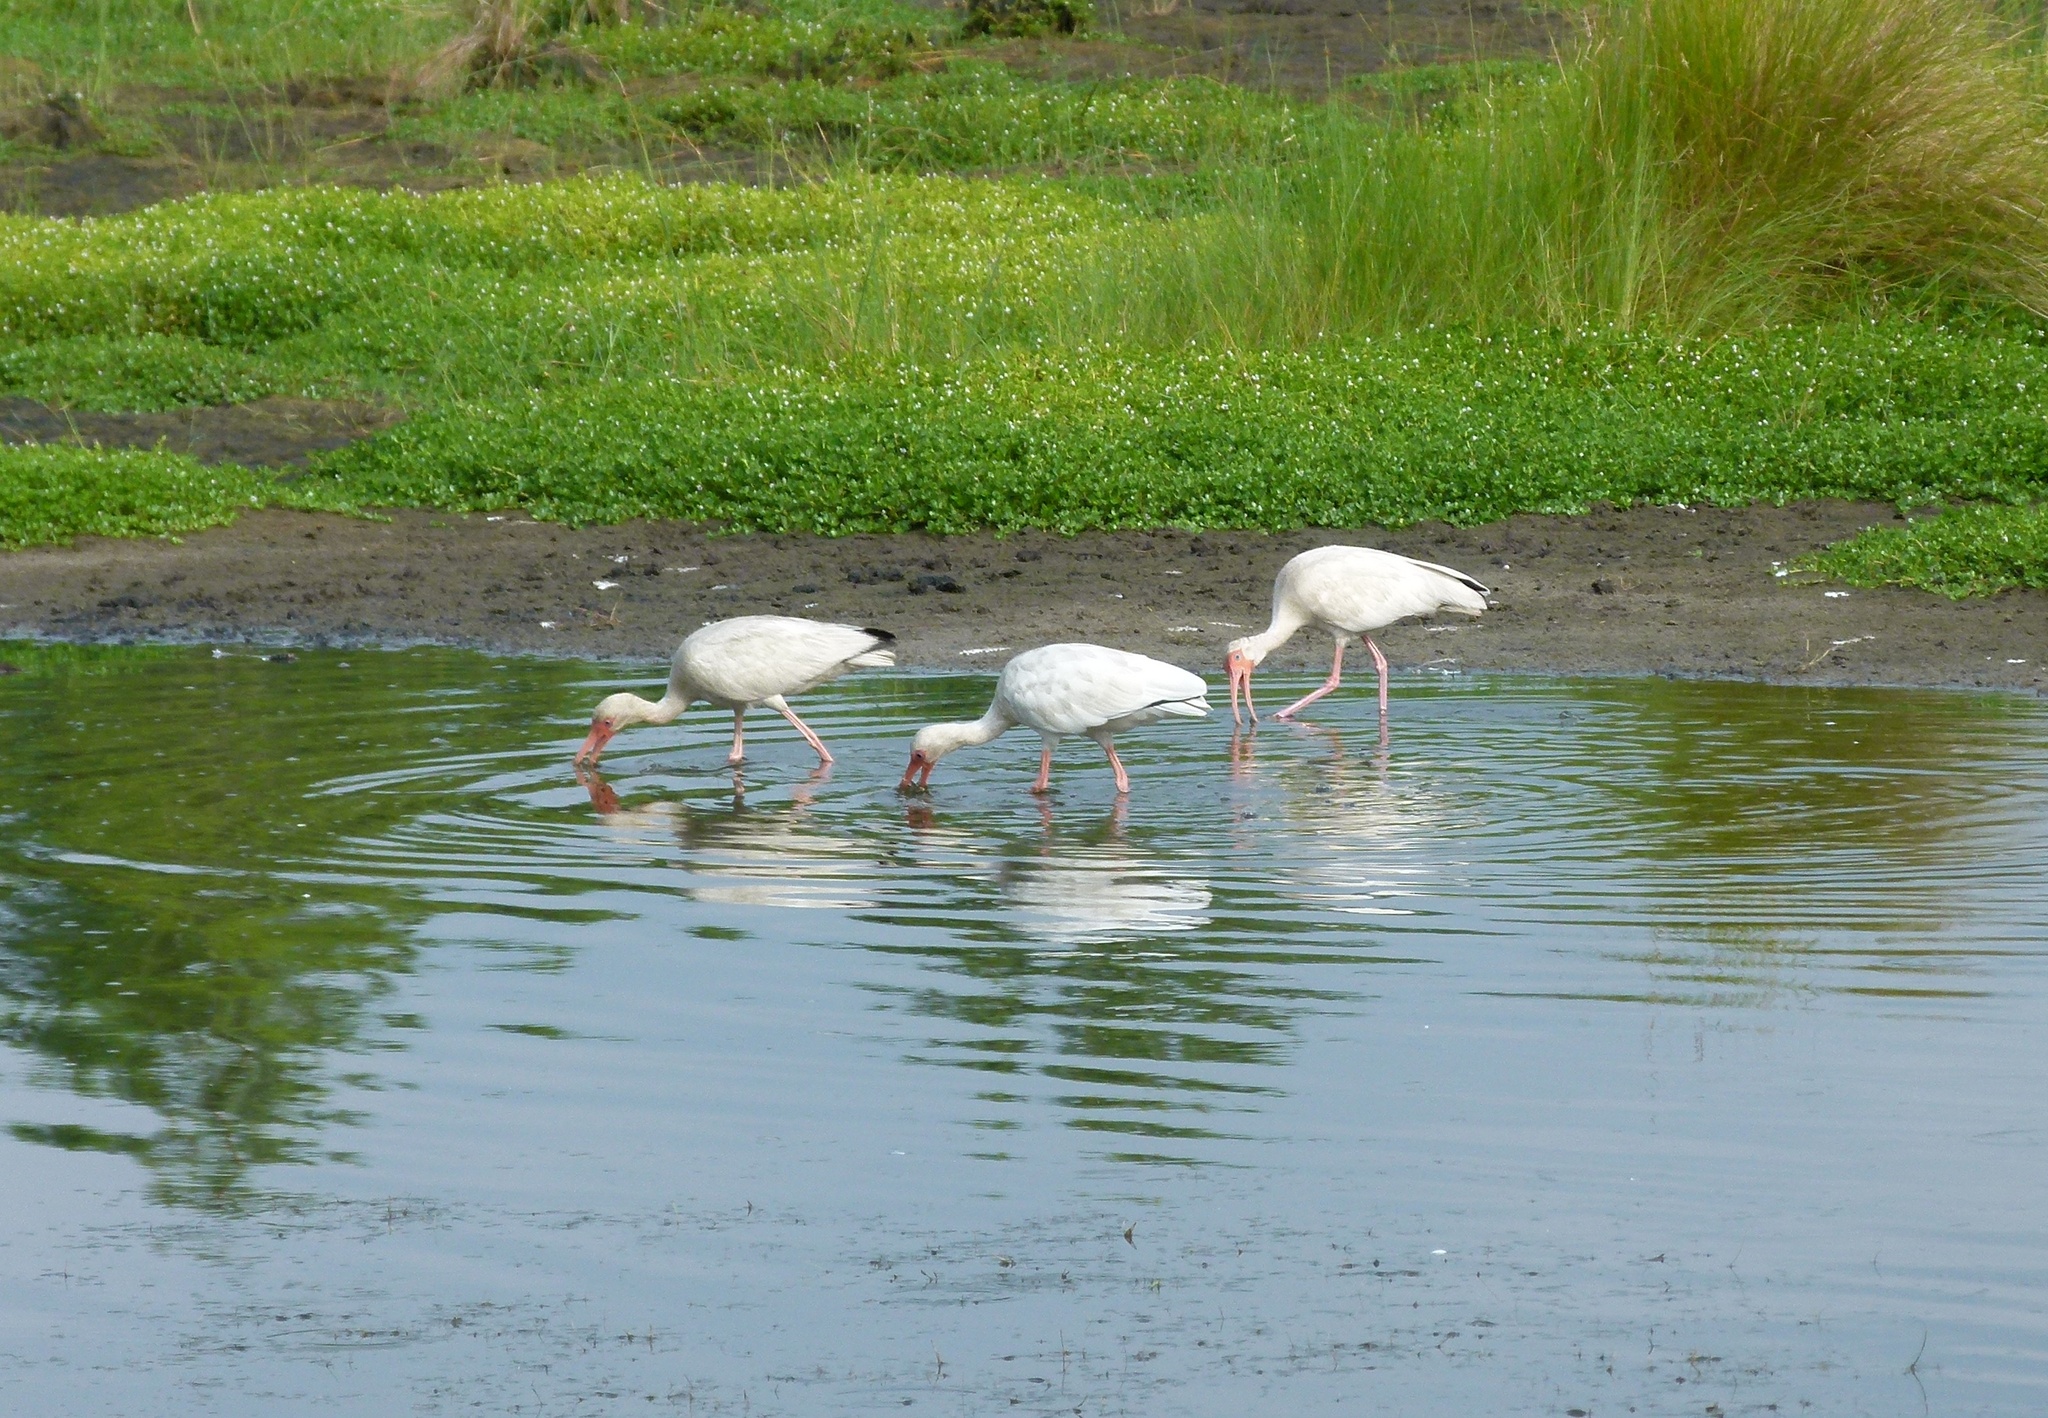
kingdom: Animalia
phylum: Chordata
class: Aves
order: Pelecaniformes
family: Threskiornithidae
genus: Eudocimus
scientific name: Eudocimus albus
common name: White ibis
